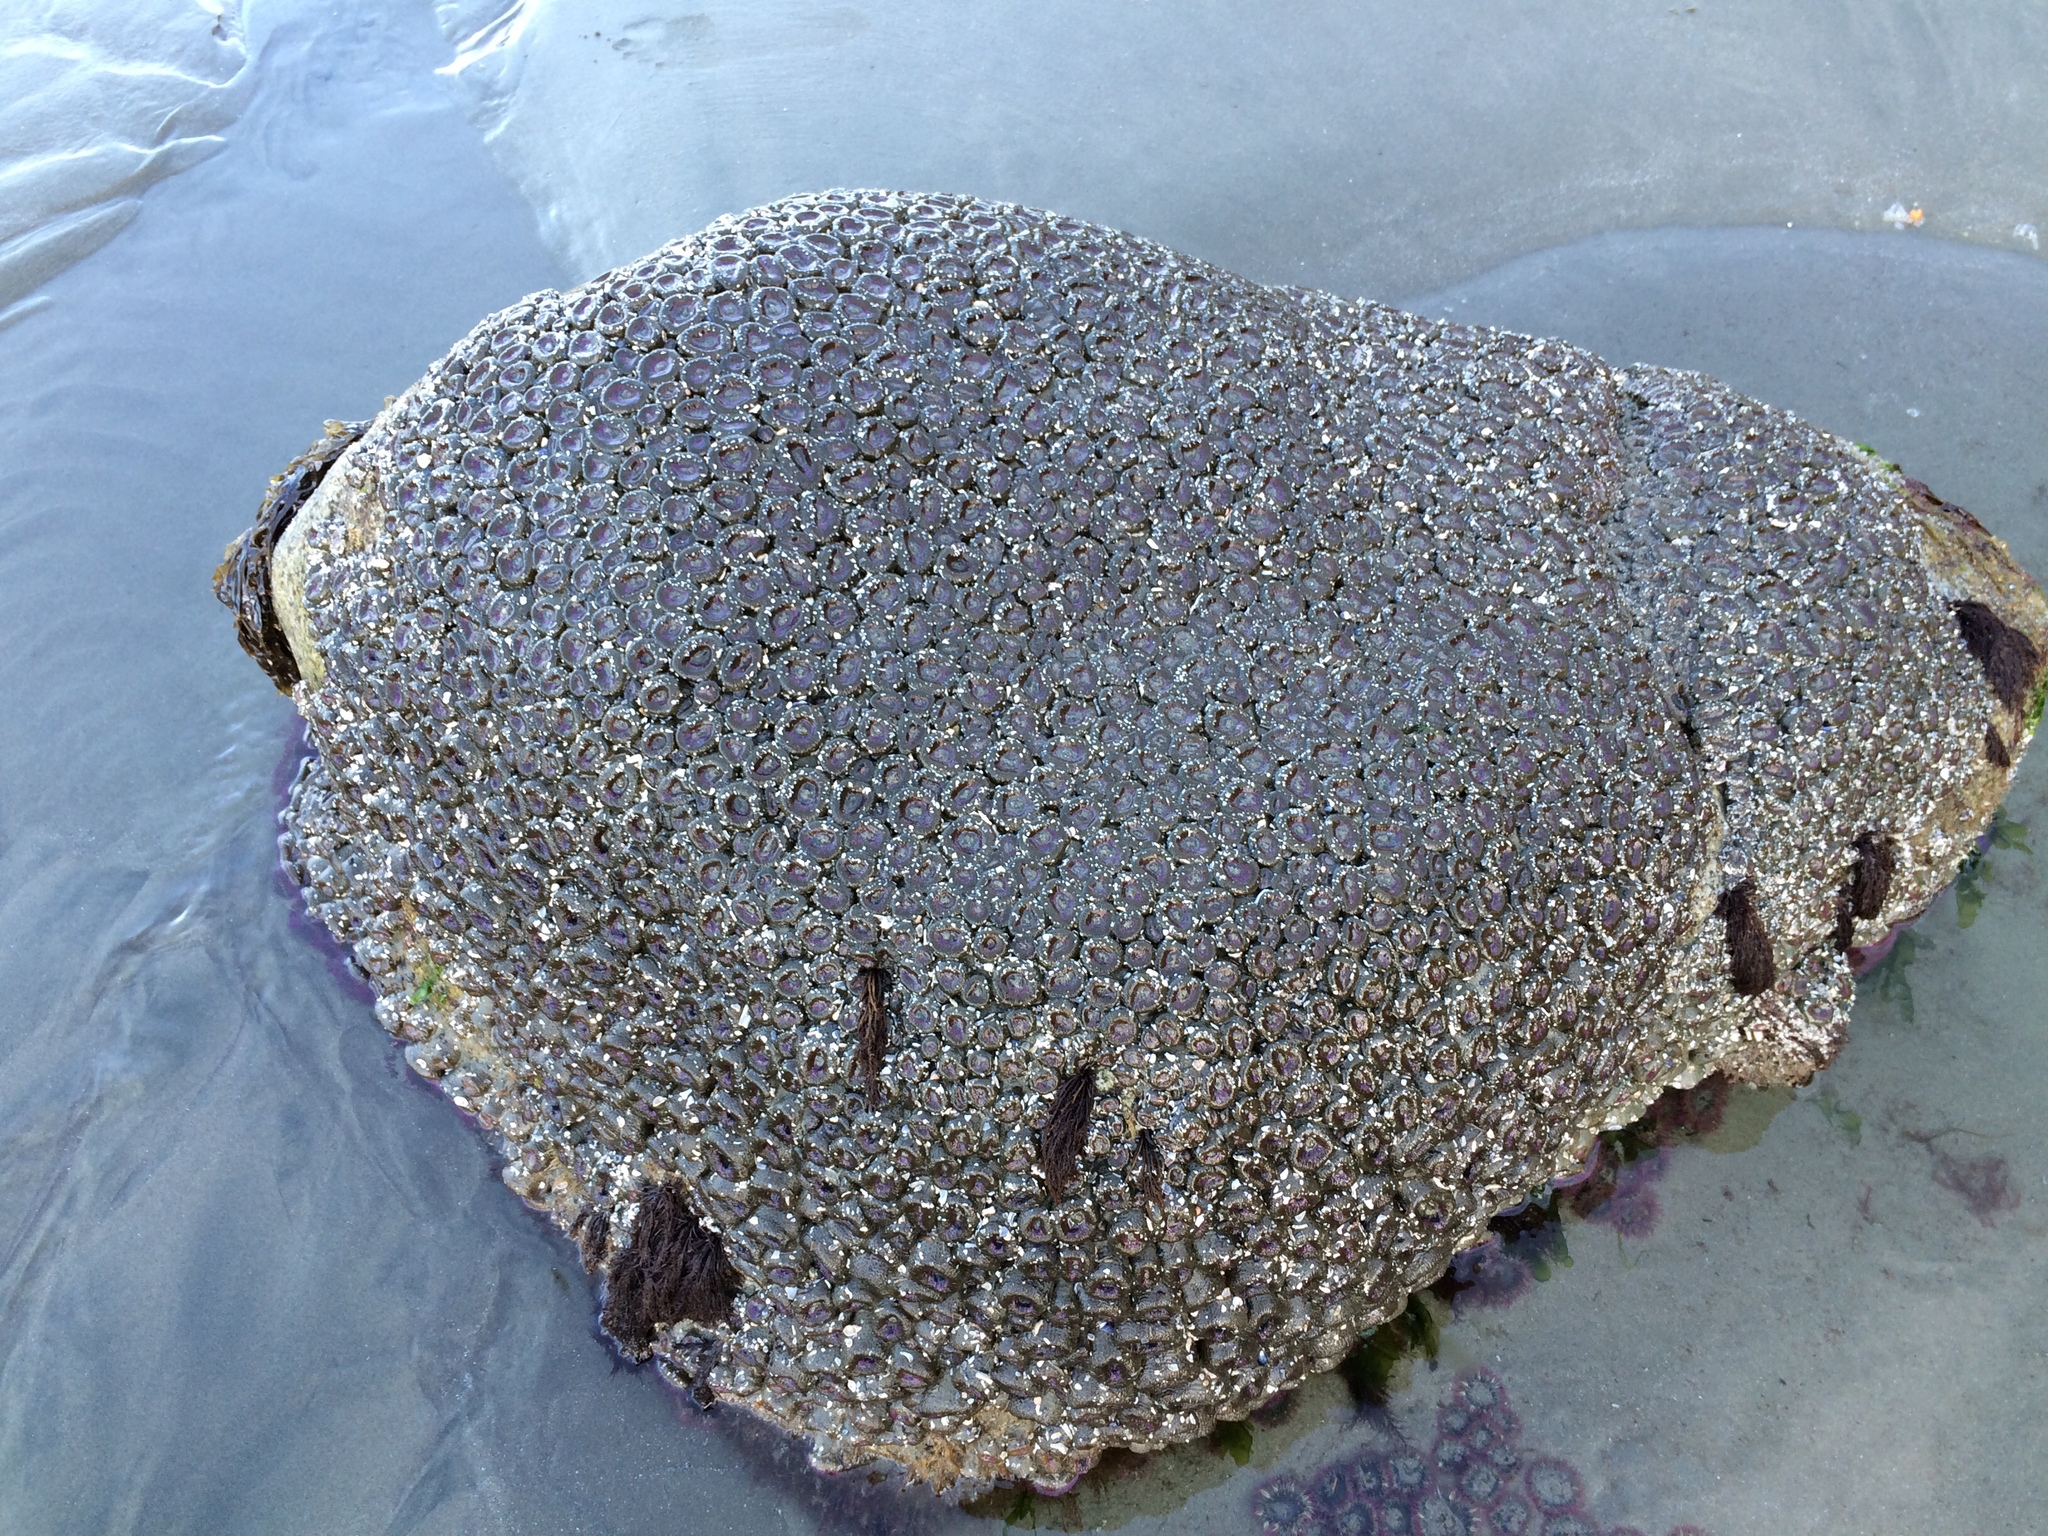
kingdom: Animalia
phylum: Cnidaria
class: Anthozoa
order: Actiniaria
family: Actiniidae
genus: Anthopleura
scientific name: Anthopleura elegantissima
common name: Clonal anemone
